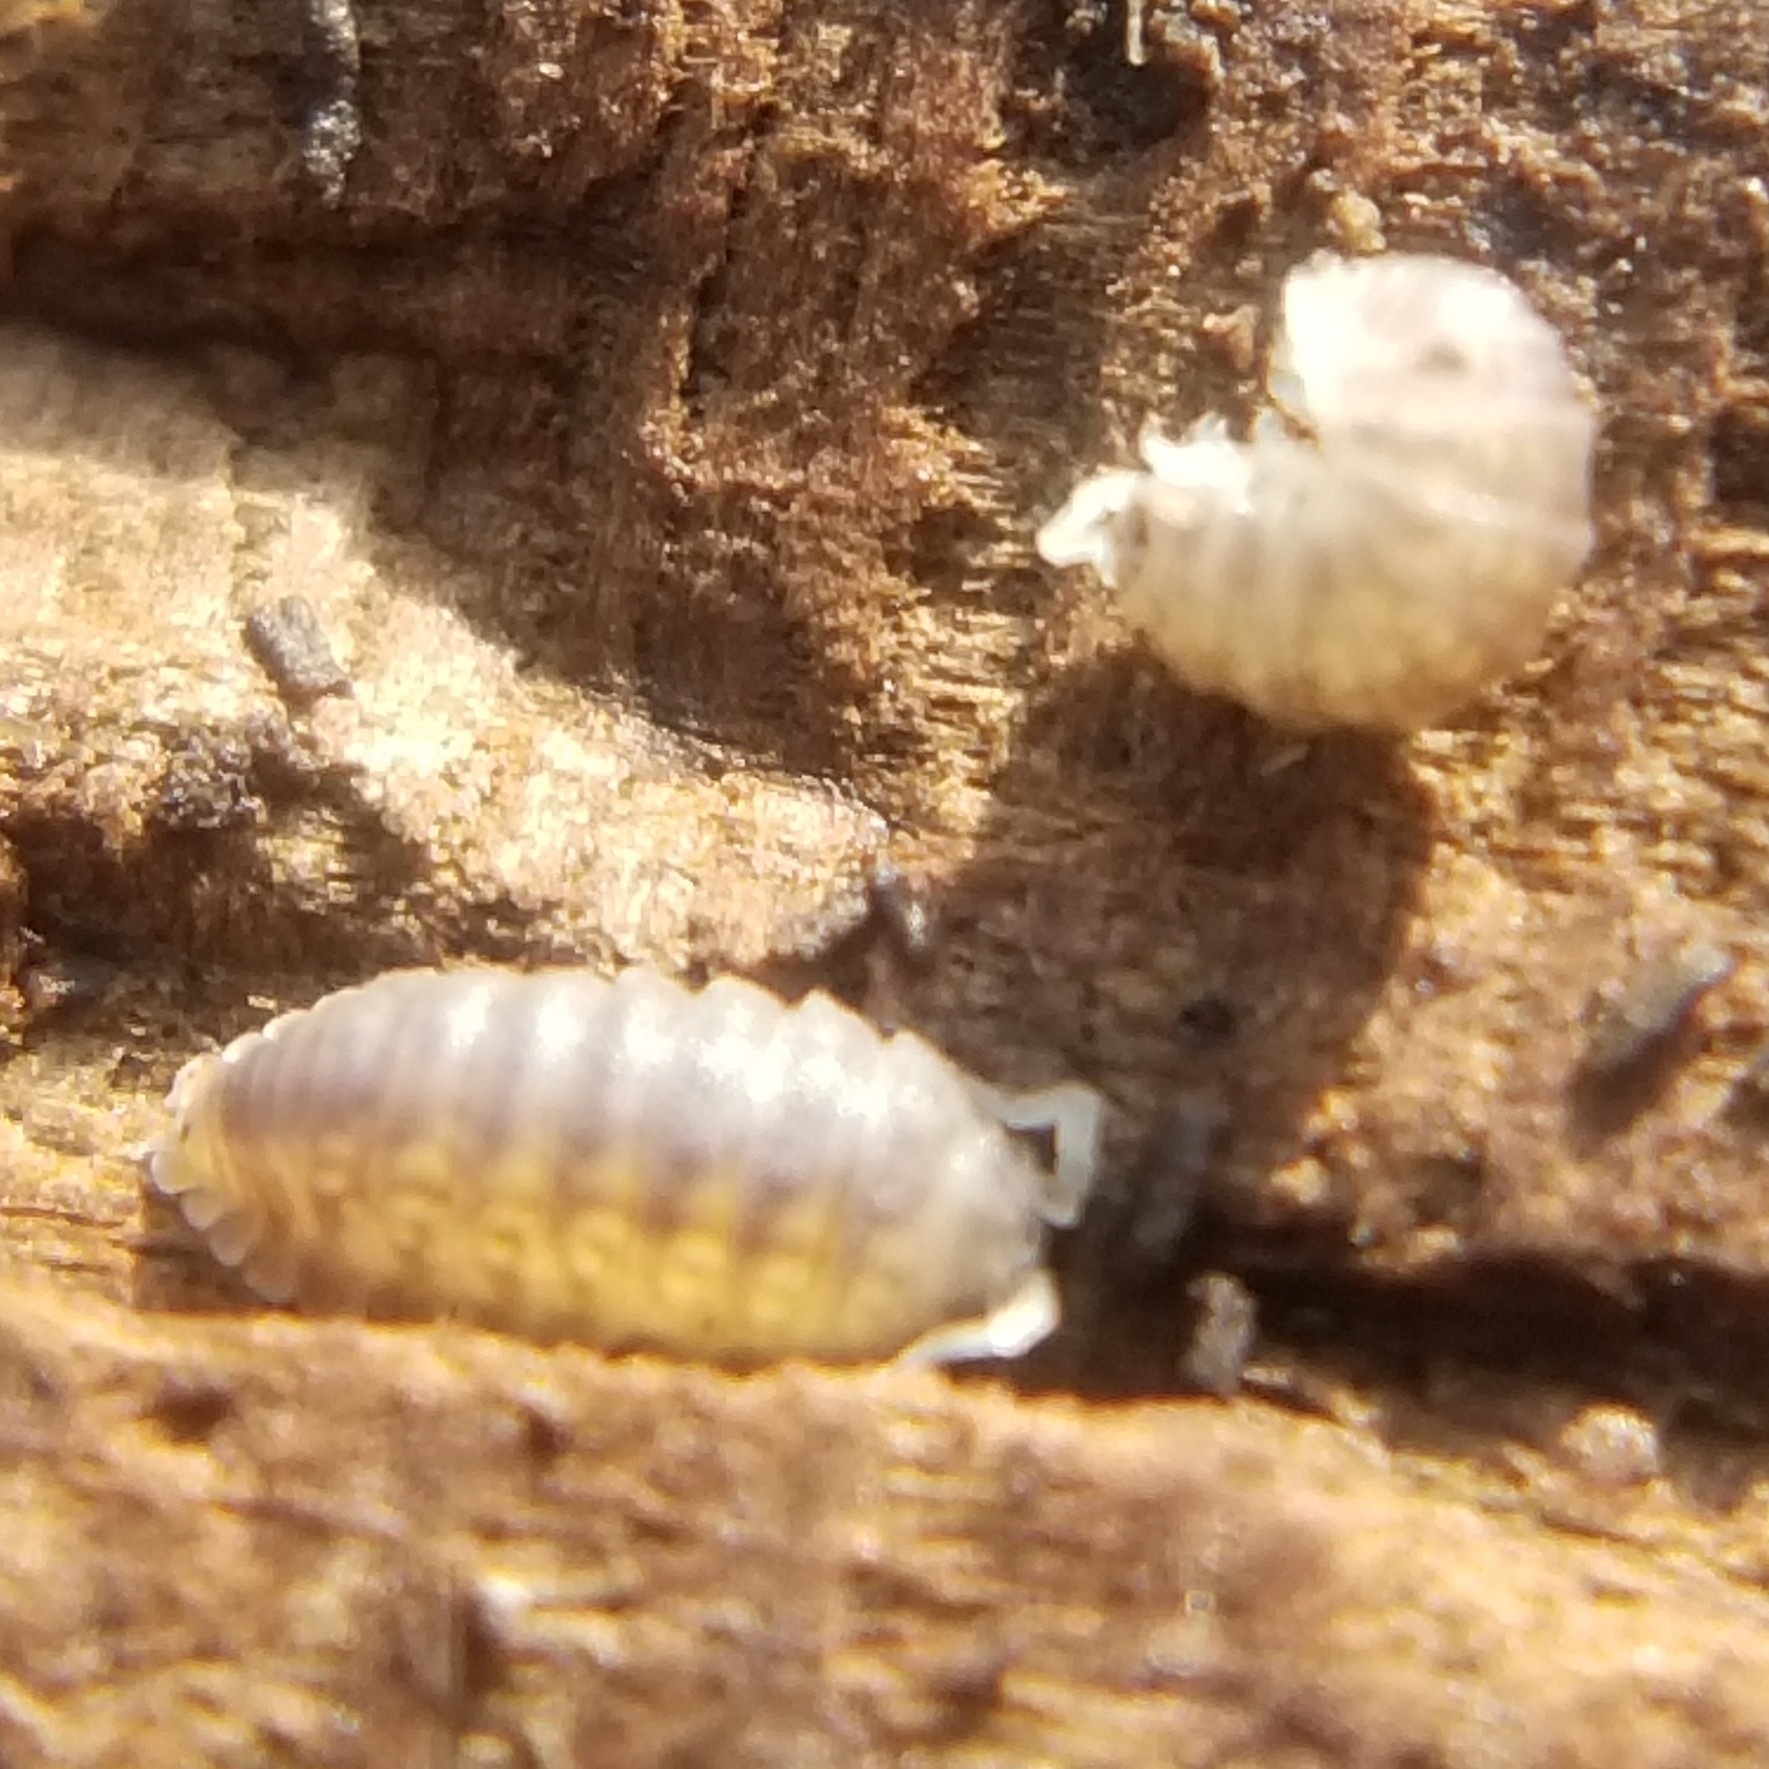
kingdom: Animalia
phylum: Arthropoda
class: Malacostraca
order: Isopoda
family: Detonidae
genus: Armadilloniscus
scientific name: Armadilloniscus lindahli
